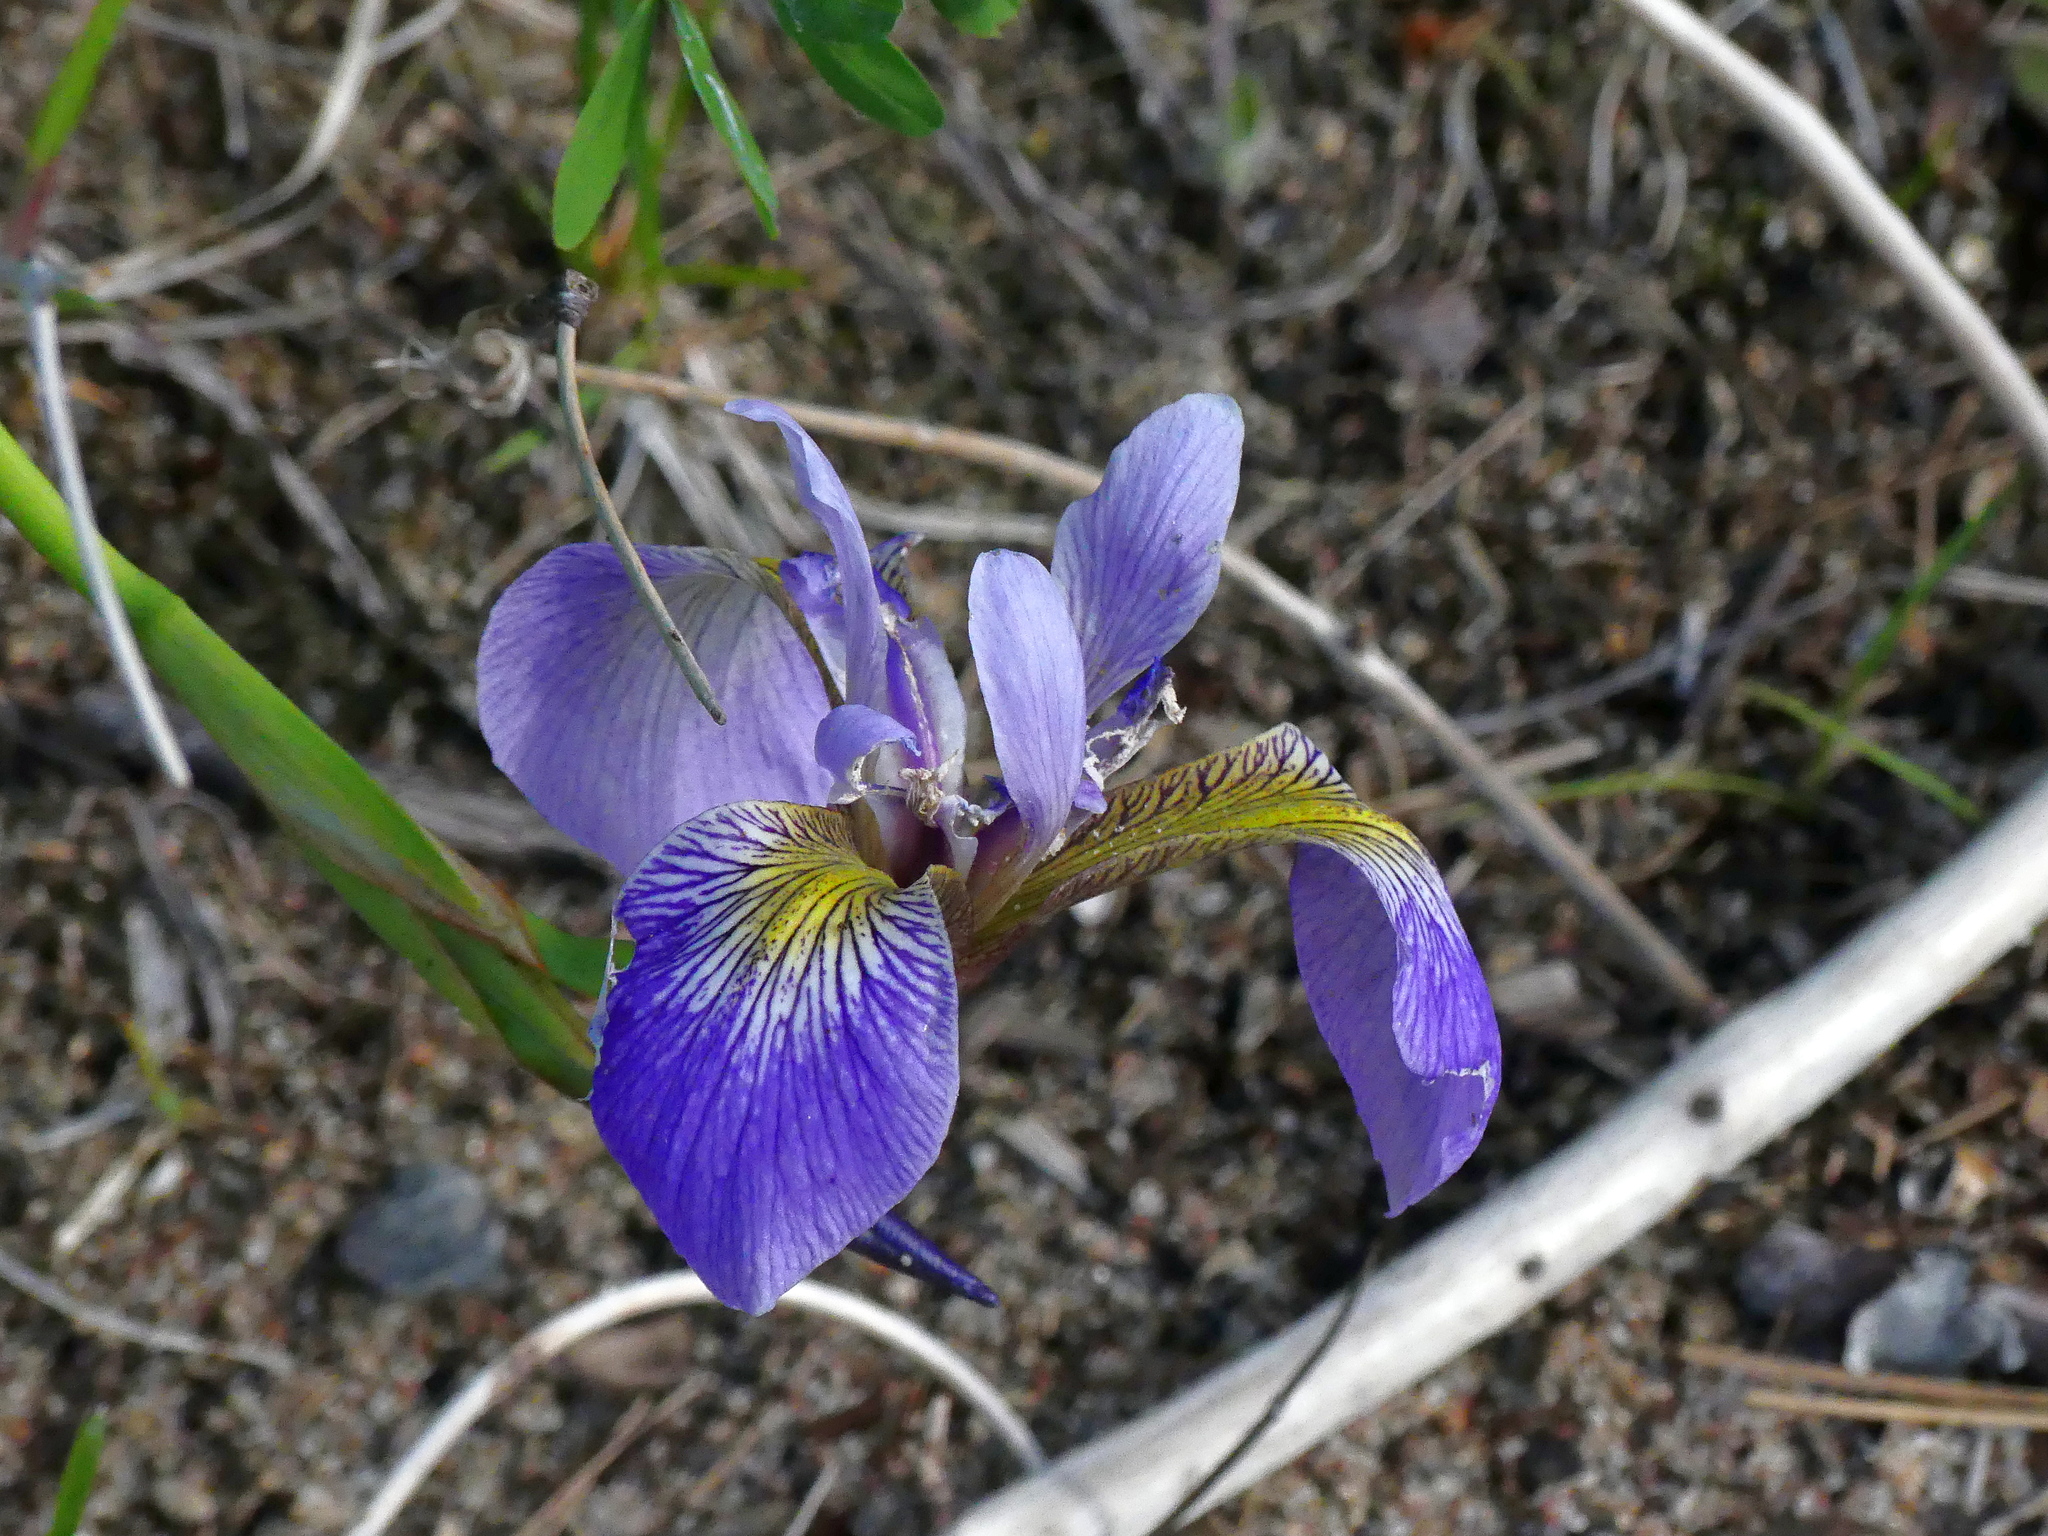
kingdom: Plantae
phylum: Tracheophyta
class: Liliopsida
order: Asparagales
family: Iridaceae
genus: Iris
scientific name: Iris versicolor
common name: Purple iris
